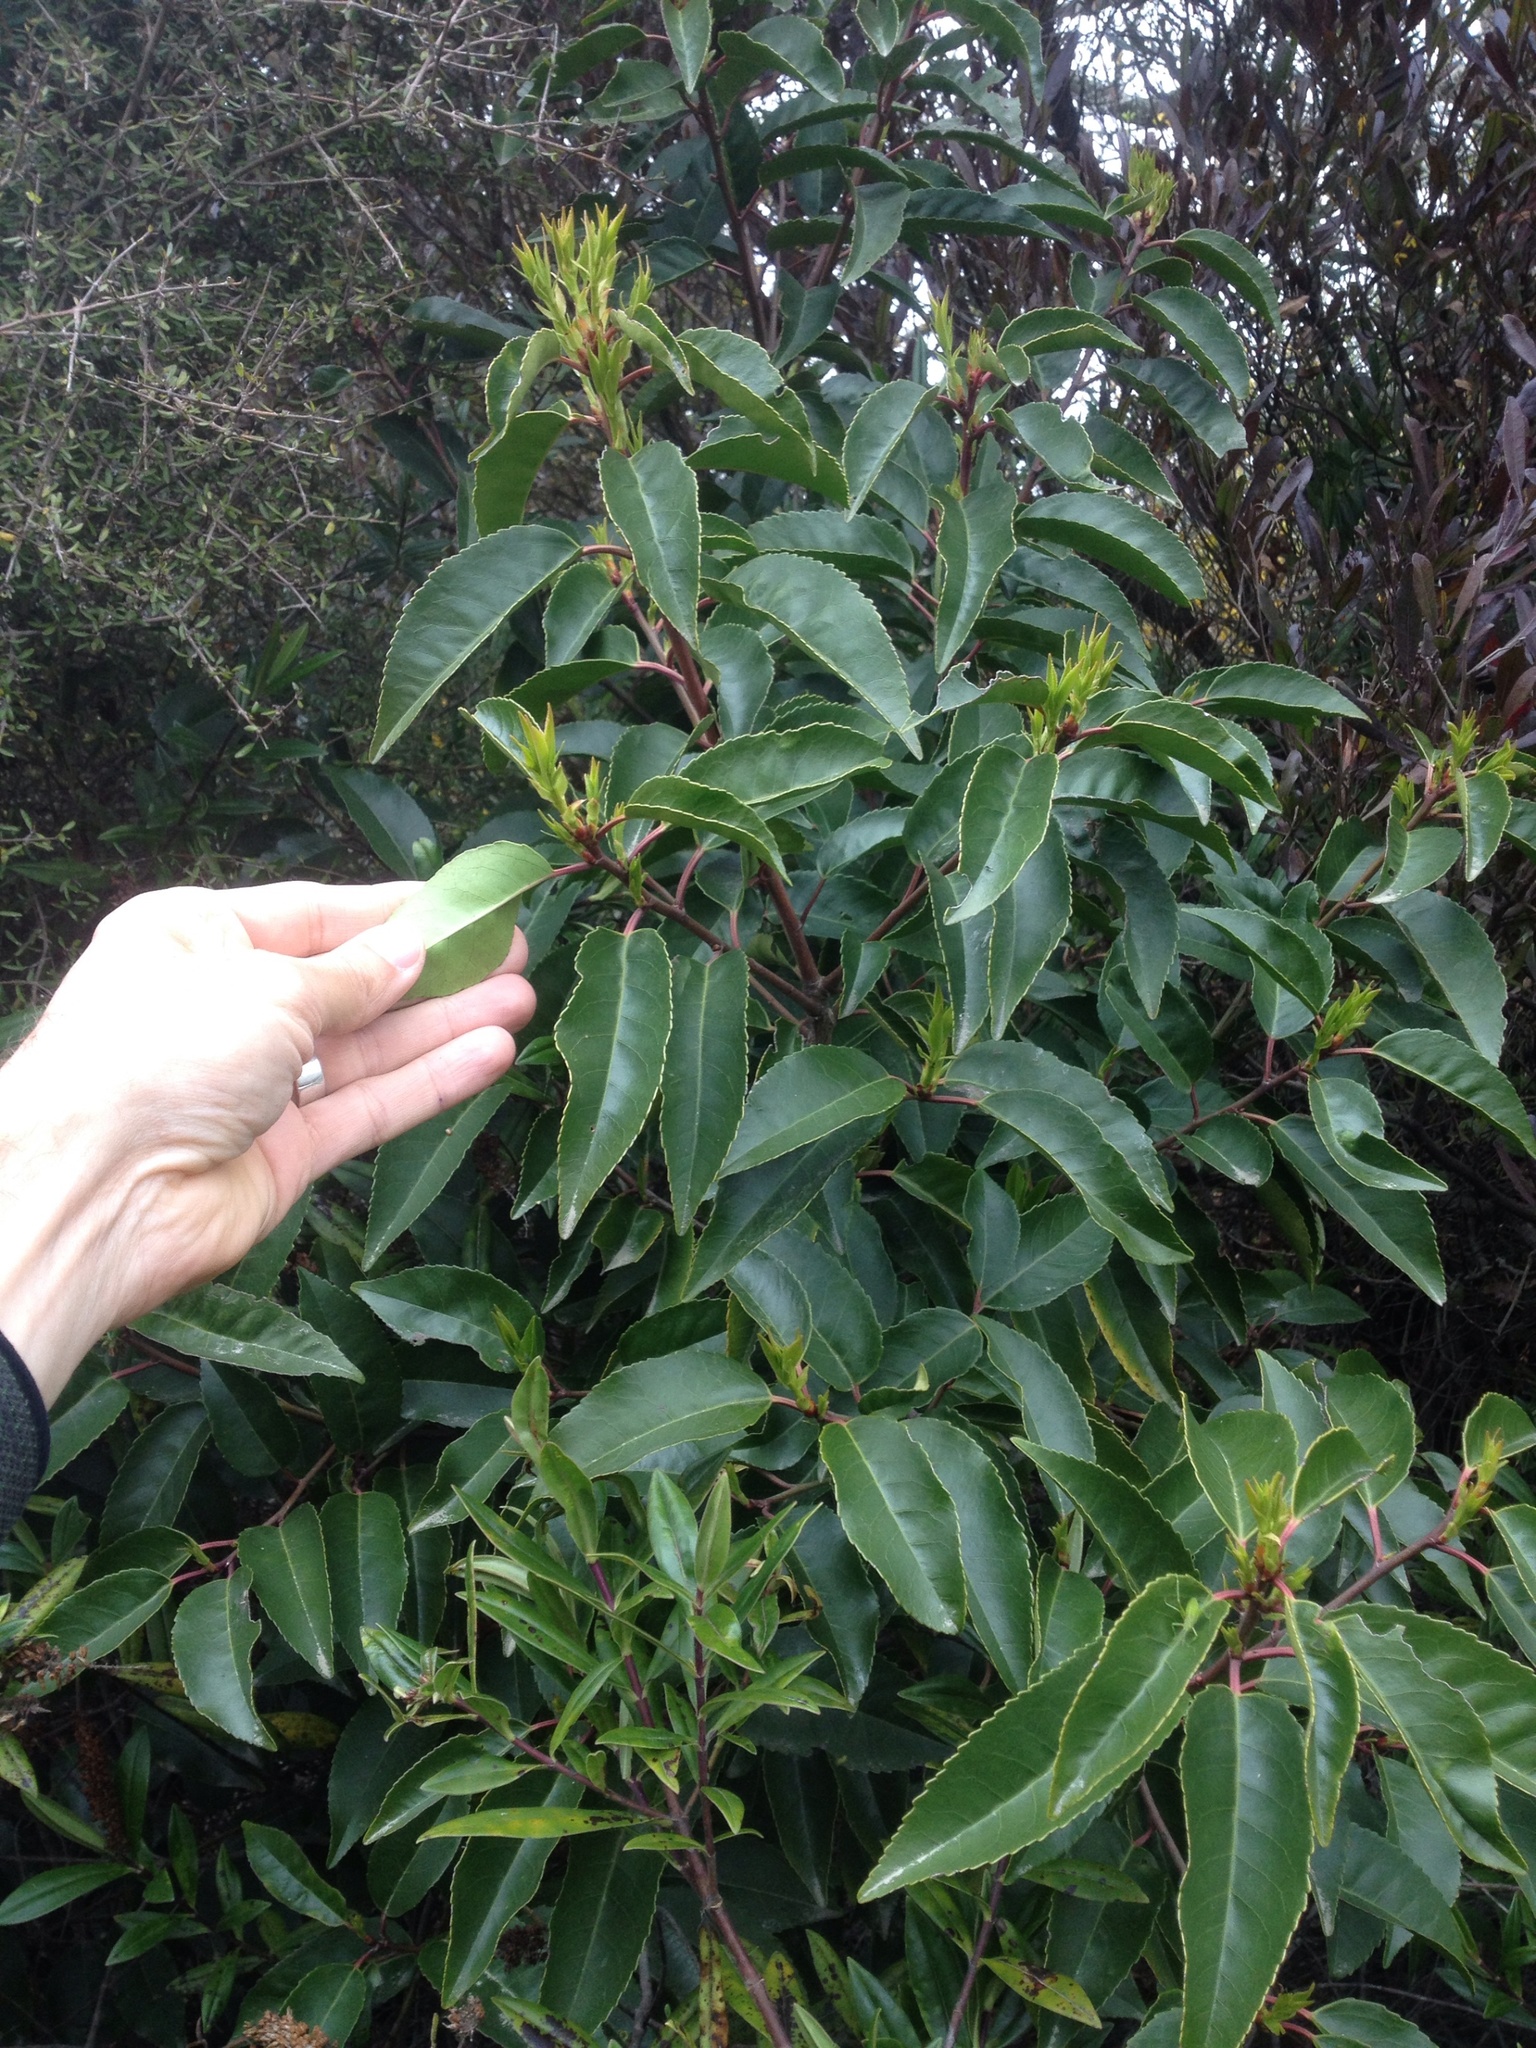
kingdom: Plantae
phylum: Tracheophyta
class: Magnoliopsida
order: Rosales
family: Rosaceae
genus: Prunus
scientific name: Prunus lusitanica
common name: Portugal laurel
